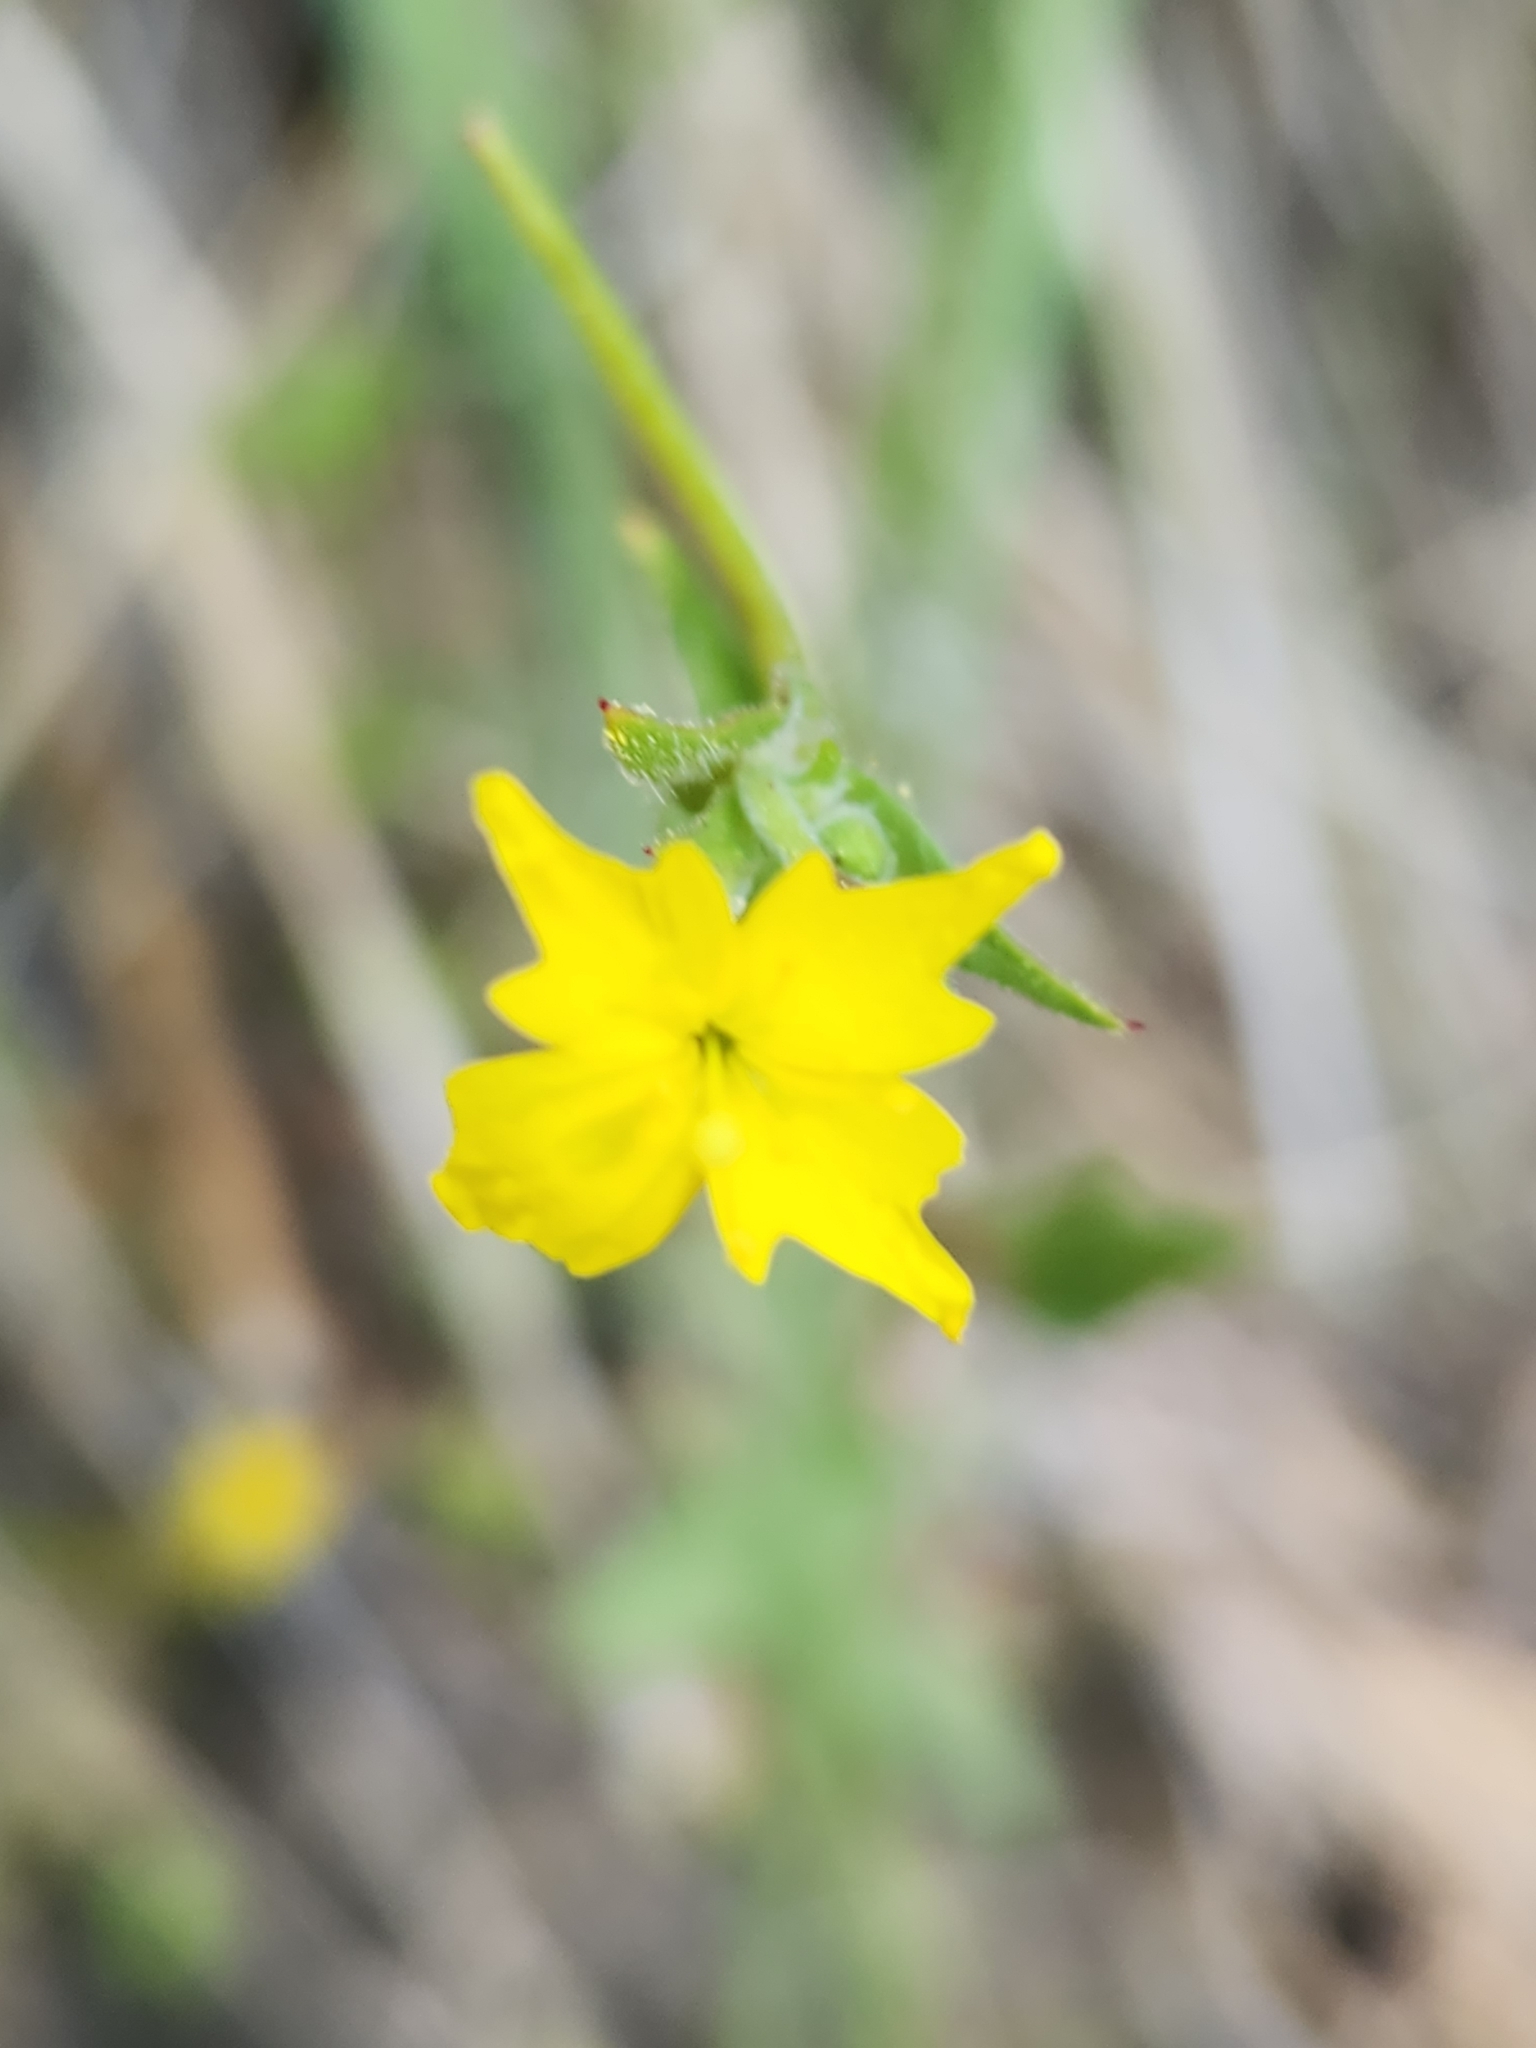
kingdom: Plantae
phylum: Tracheophyta
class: Magnoliopsida
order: Myrtales
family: Onagraceae
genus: Camissoniopsis
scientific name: Camissoniopsis confusa
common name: San bernardino suncup
